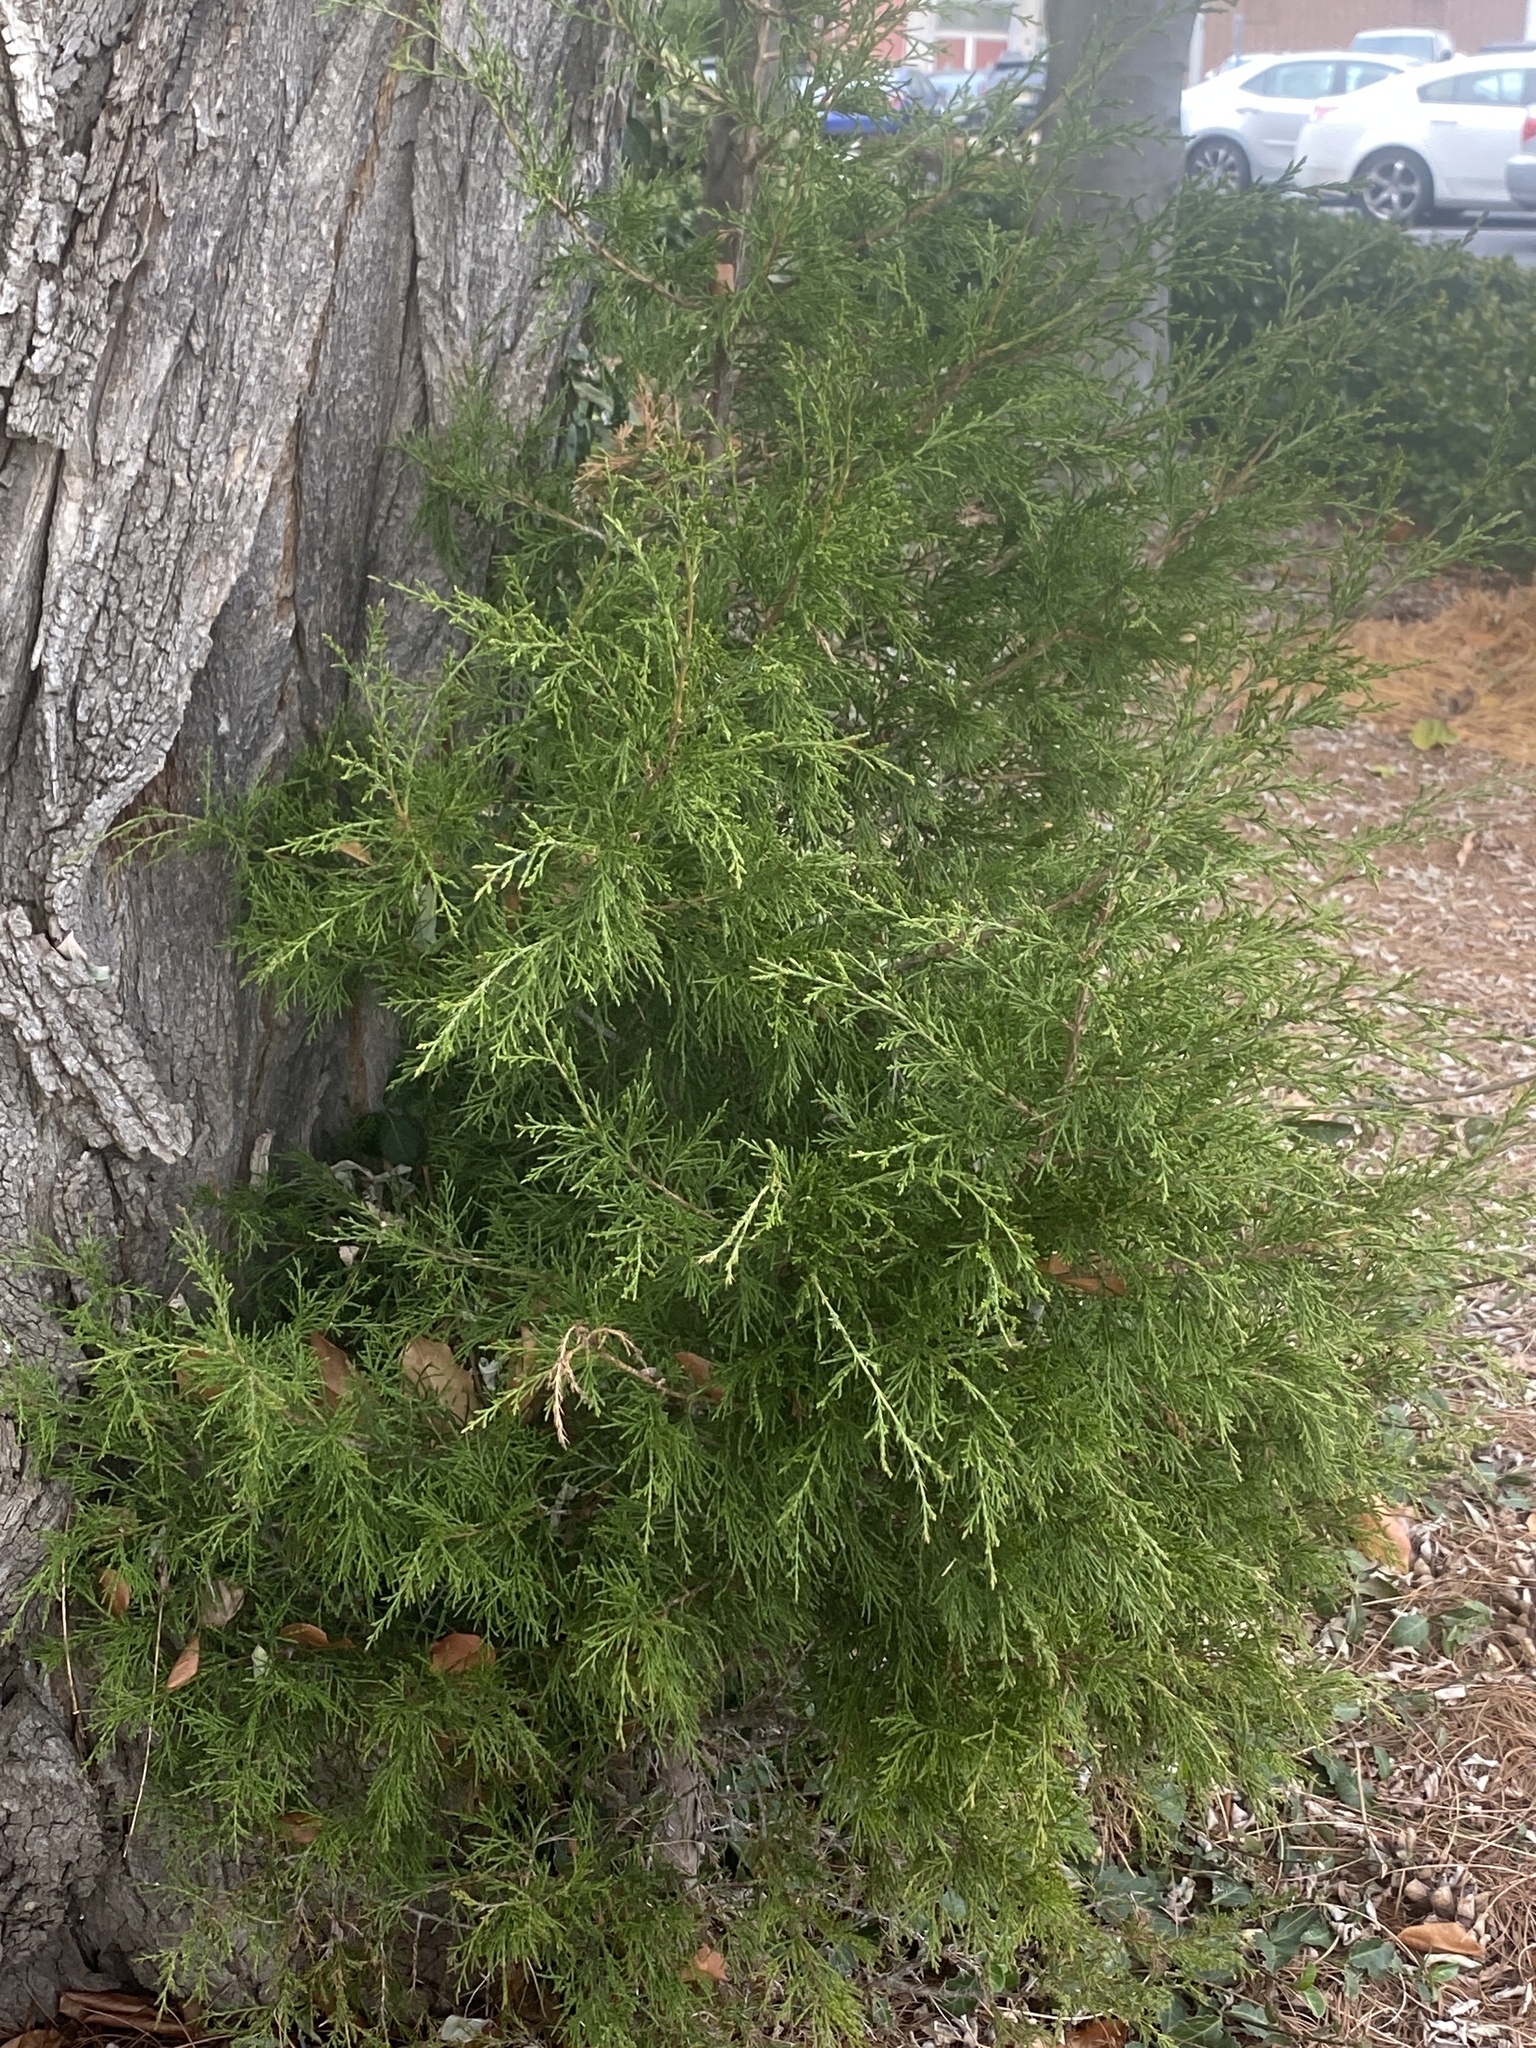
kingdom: Plantae
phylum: Tracheophyta
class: Pinopsida
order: Pinales
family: Cupressaceae
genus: Juniperus
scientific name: Juniperus virginiana
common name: Red juniper
